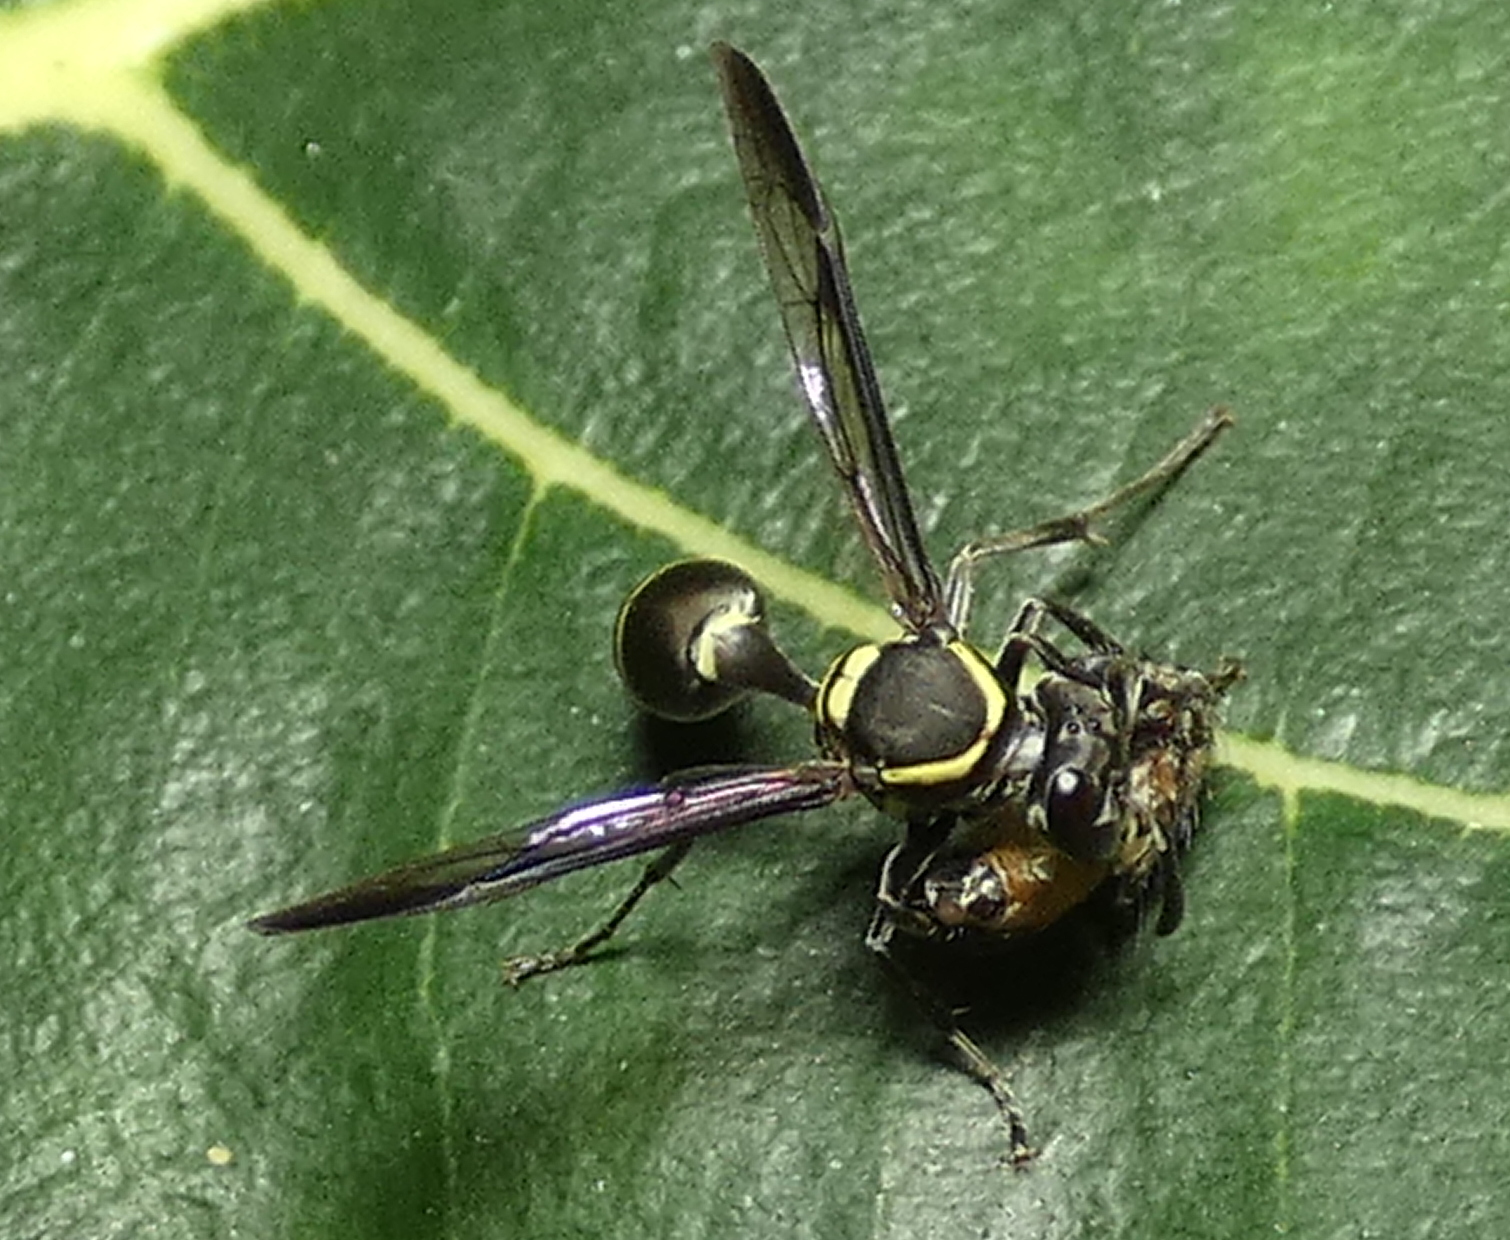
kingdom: Animalia
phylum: Arthropoda
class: Insecta
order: Hymenoptera
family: Eumenidae
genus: Polybia
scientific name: Polybia occidentalis
